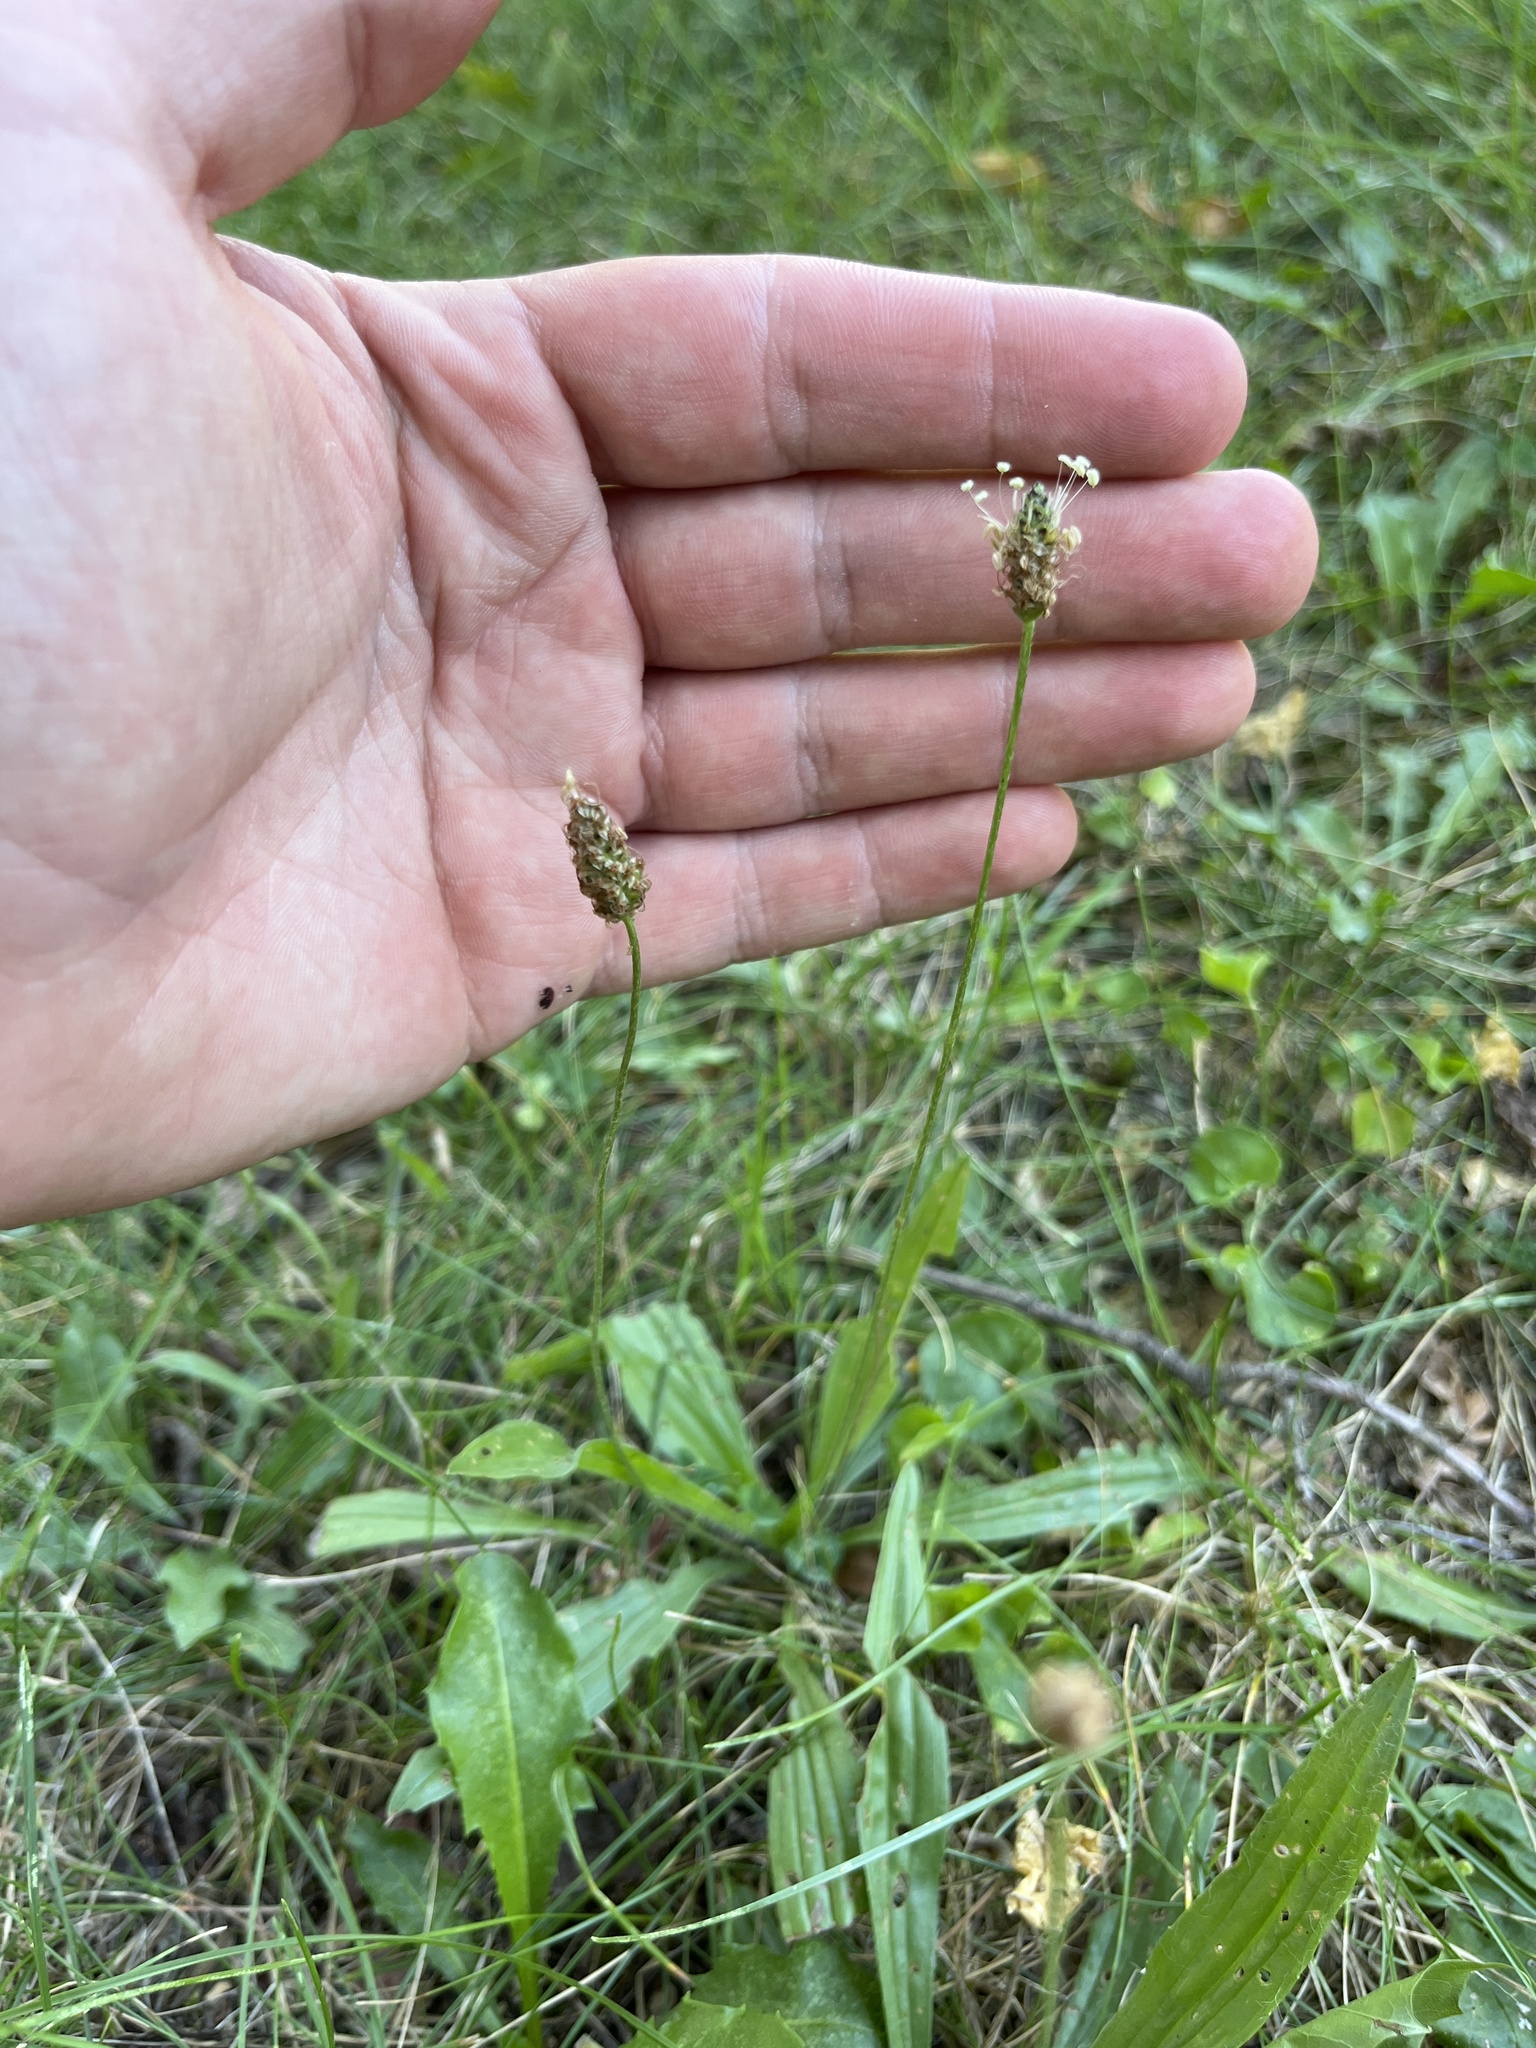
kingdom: Plantae
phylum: Tracheophyta
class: Magnoliopsida
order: Lamiales
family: Plantaginaceae
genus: Plantago
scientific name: Plantago lanceolata
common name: Ribwort plantain
